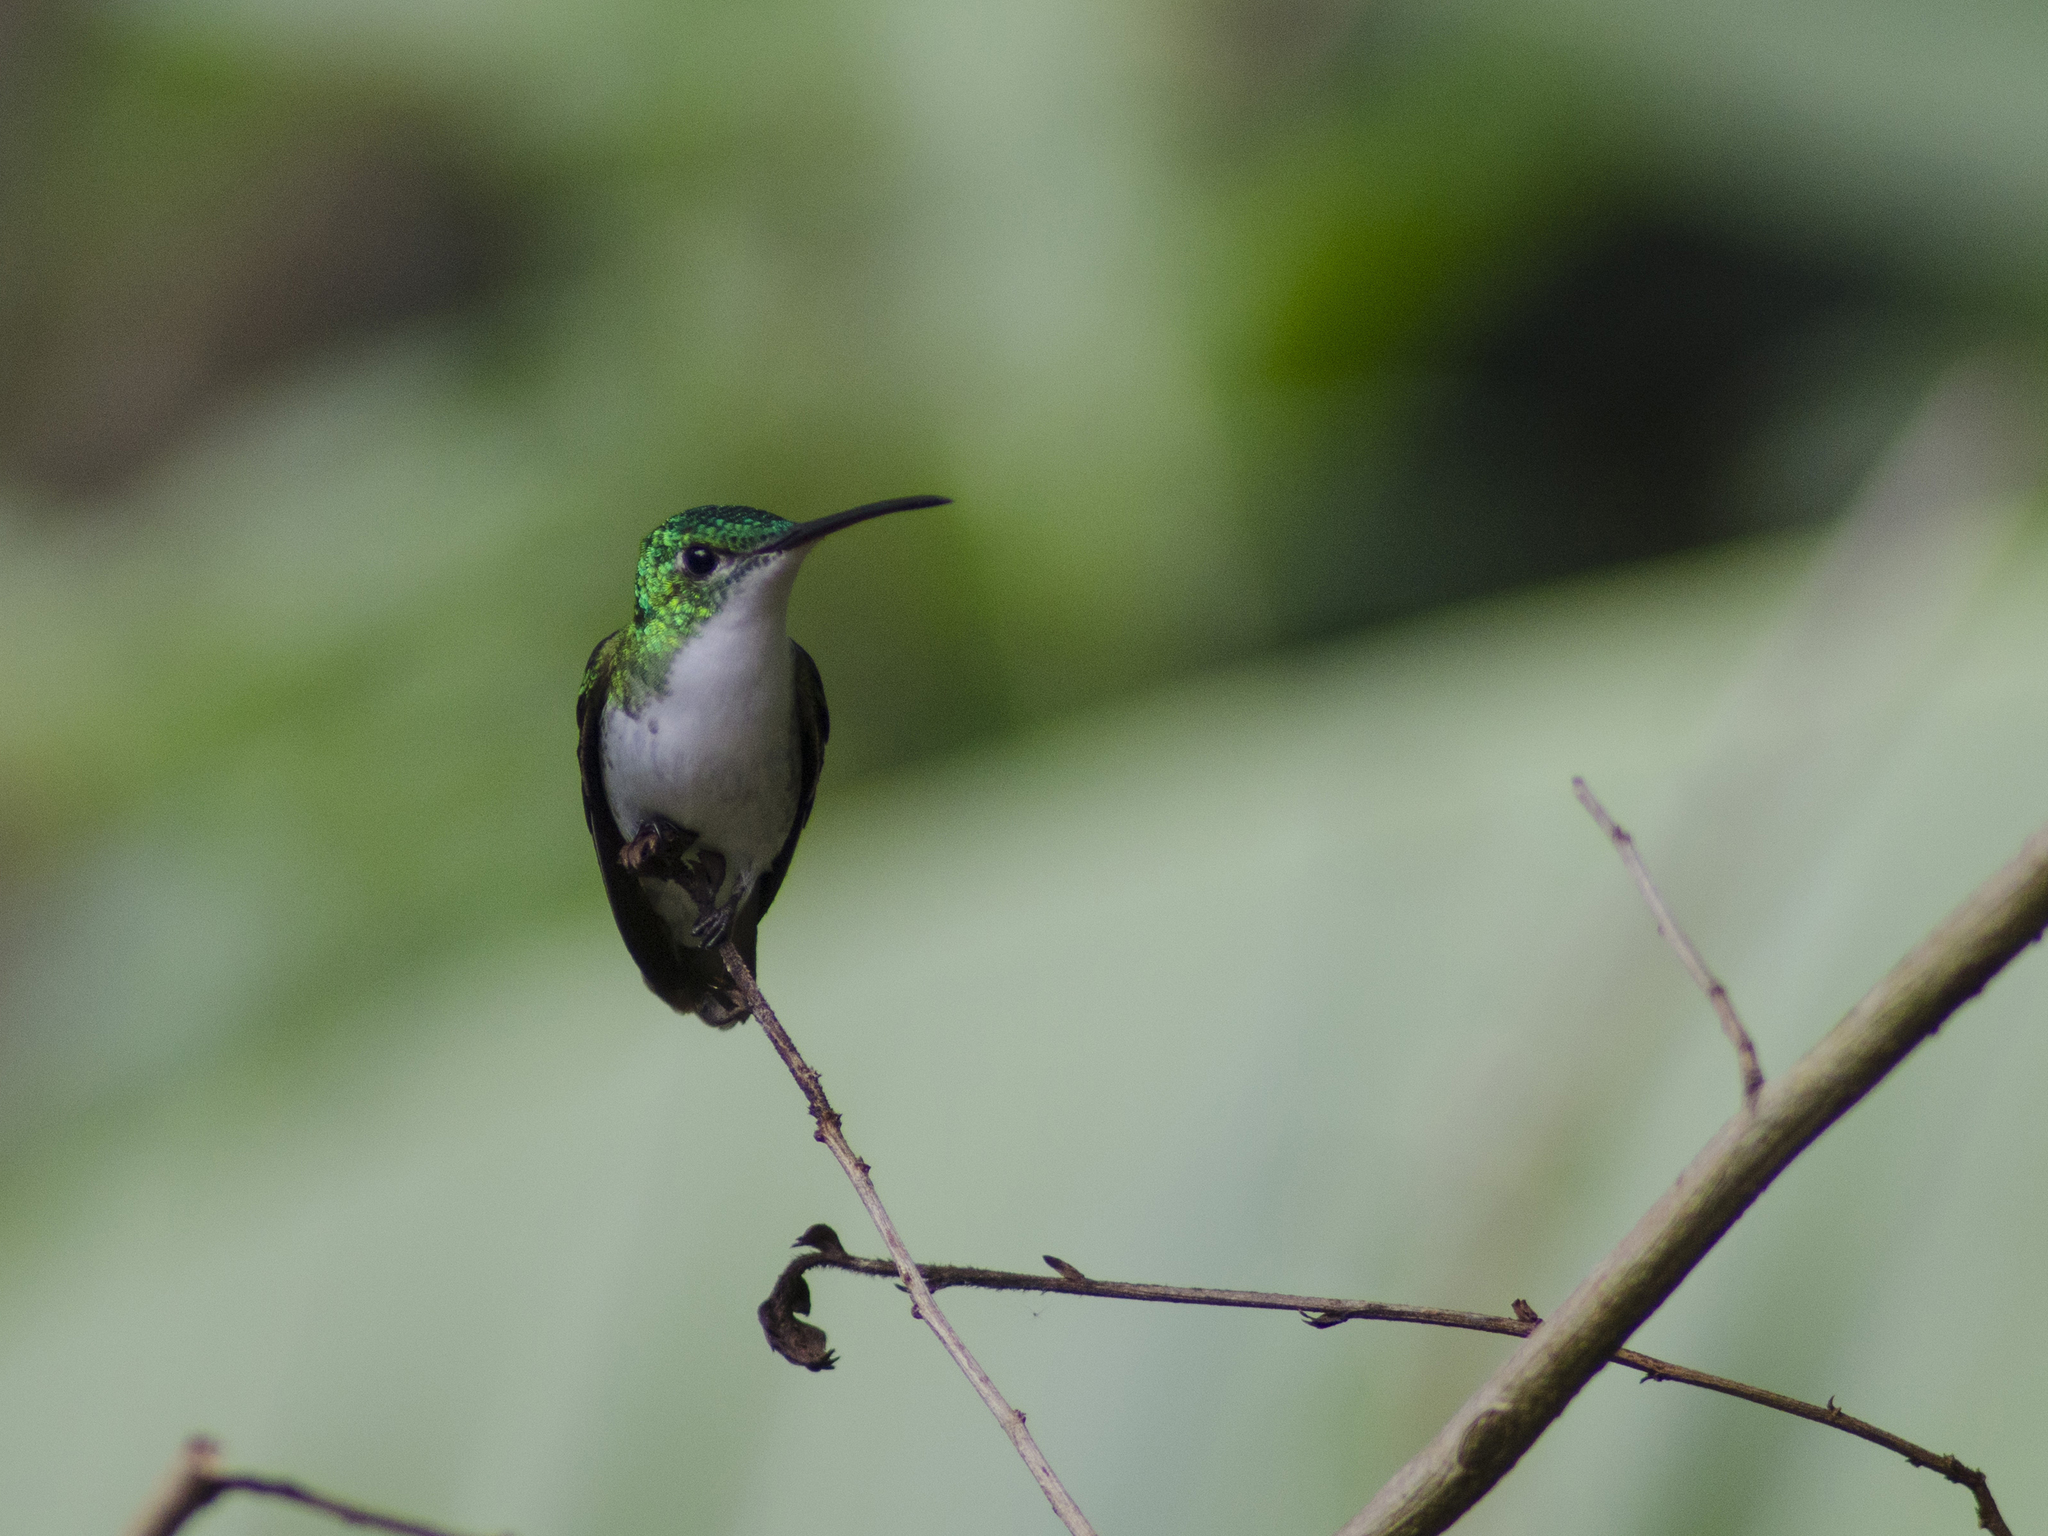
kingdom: Animalia
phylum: Chordata
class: Aves
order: Apodiformes
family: Trochilidae
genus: Uranomitra
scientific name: Uranomitra franciae
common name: Andean emerald
